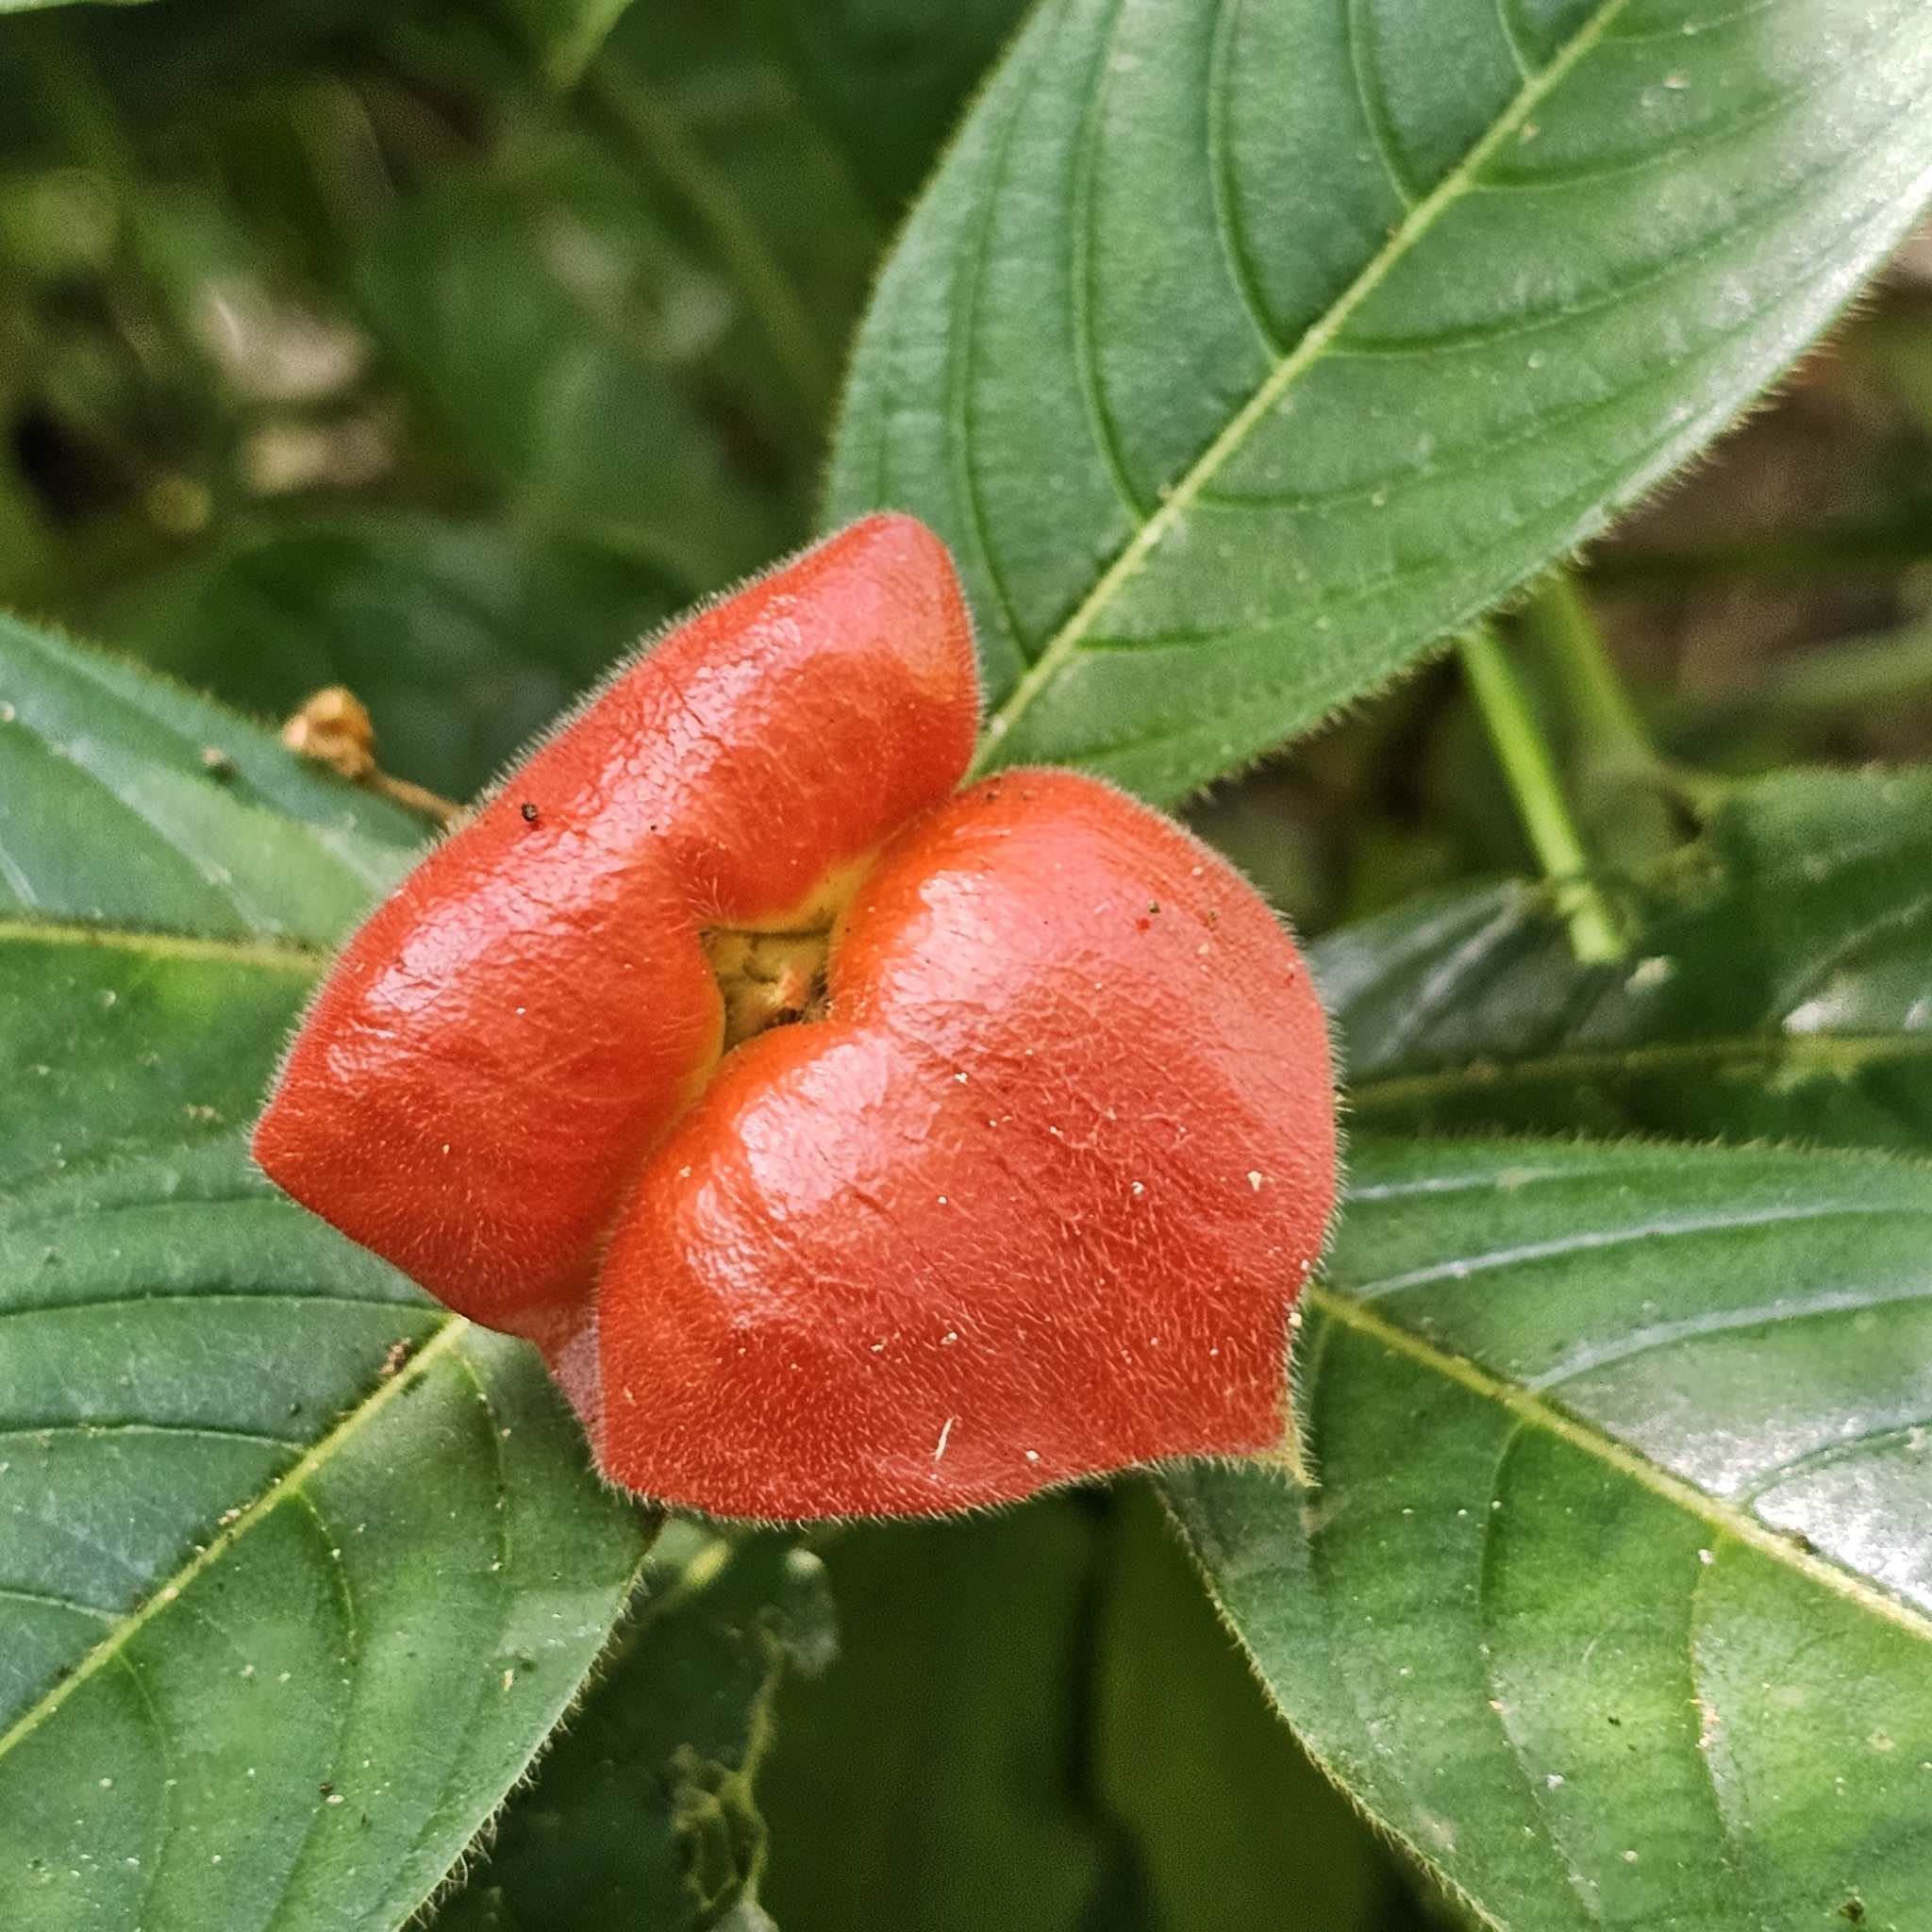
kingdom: Plantae
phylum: Tracheophyta
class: Magnoliopsida
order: Gentianales
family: Rubiaceae
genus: Palicourea
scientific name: Palicourea tomentosa
